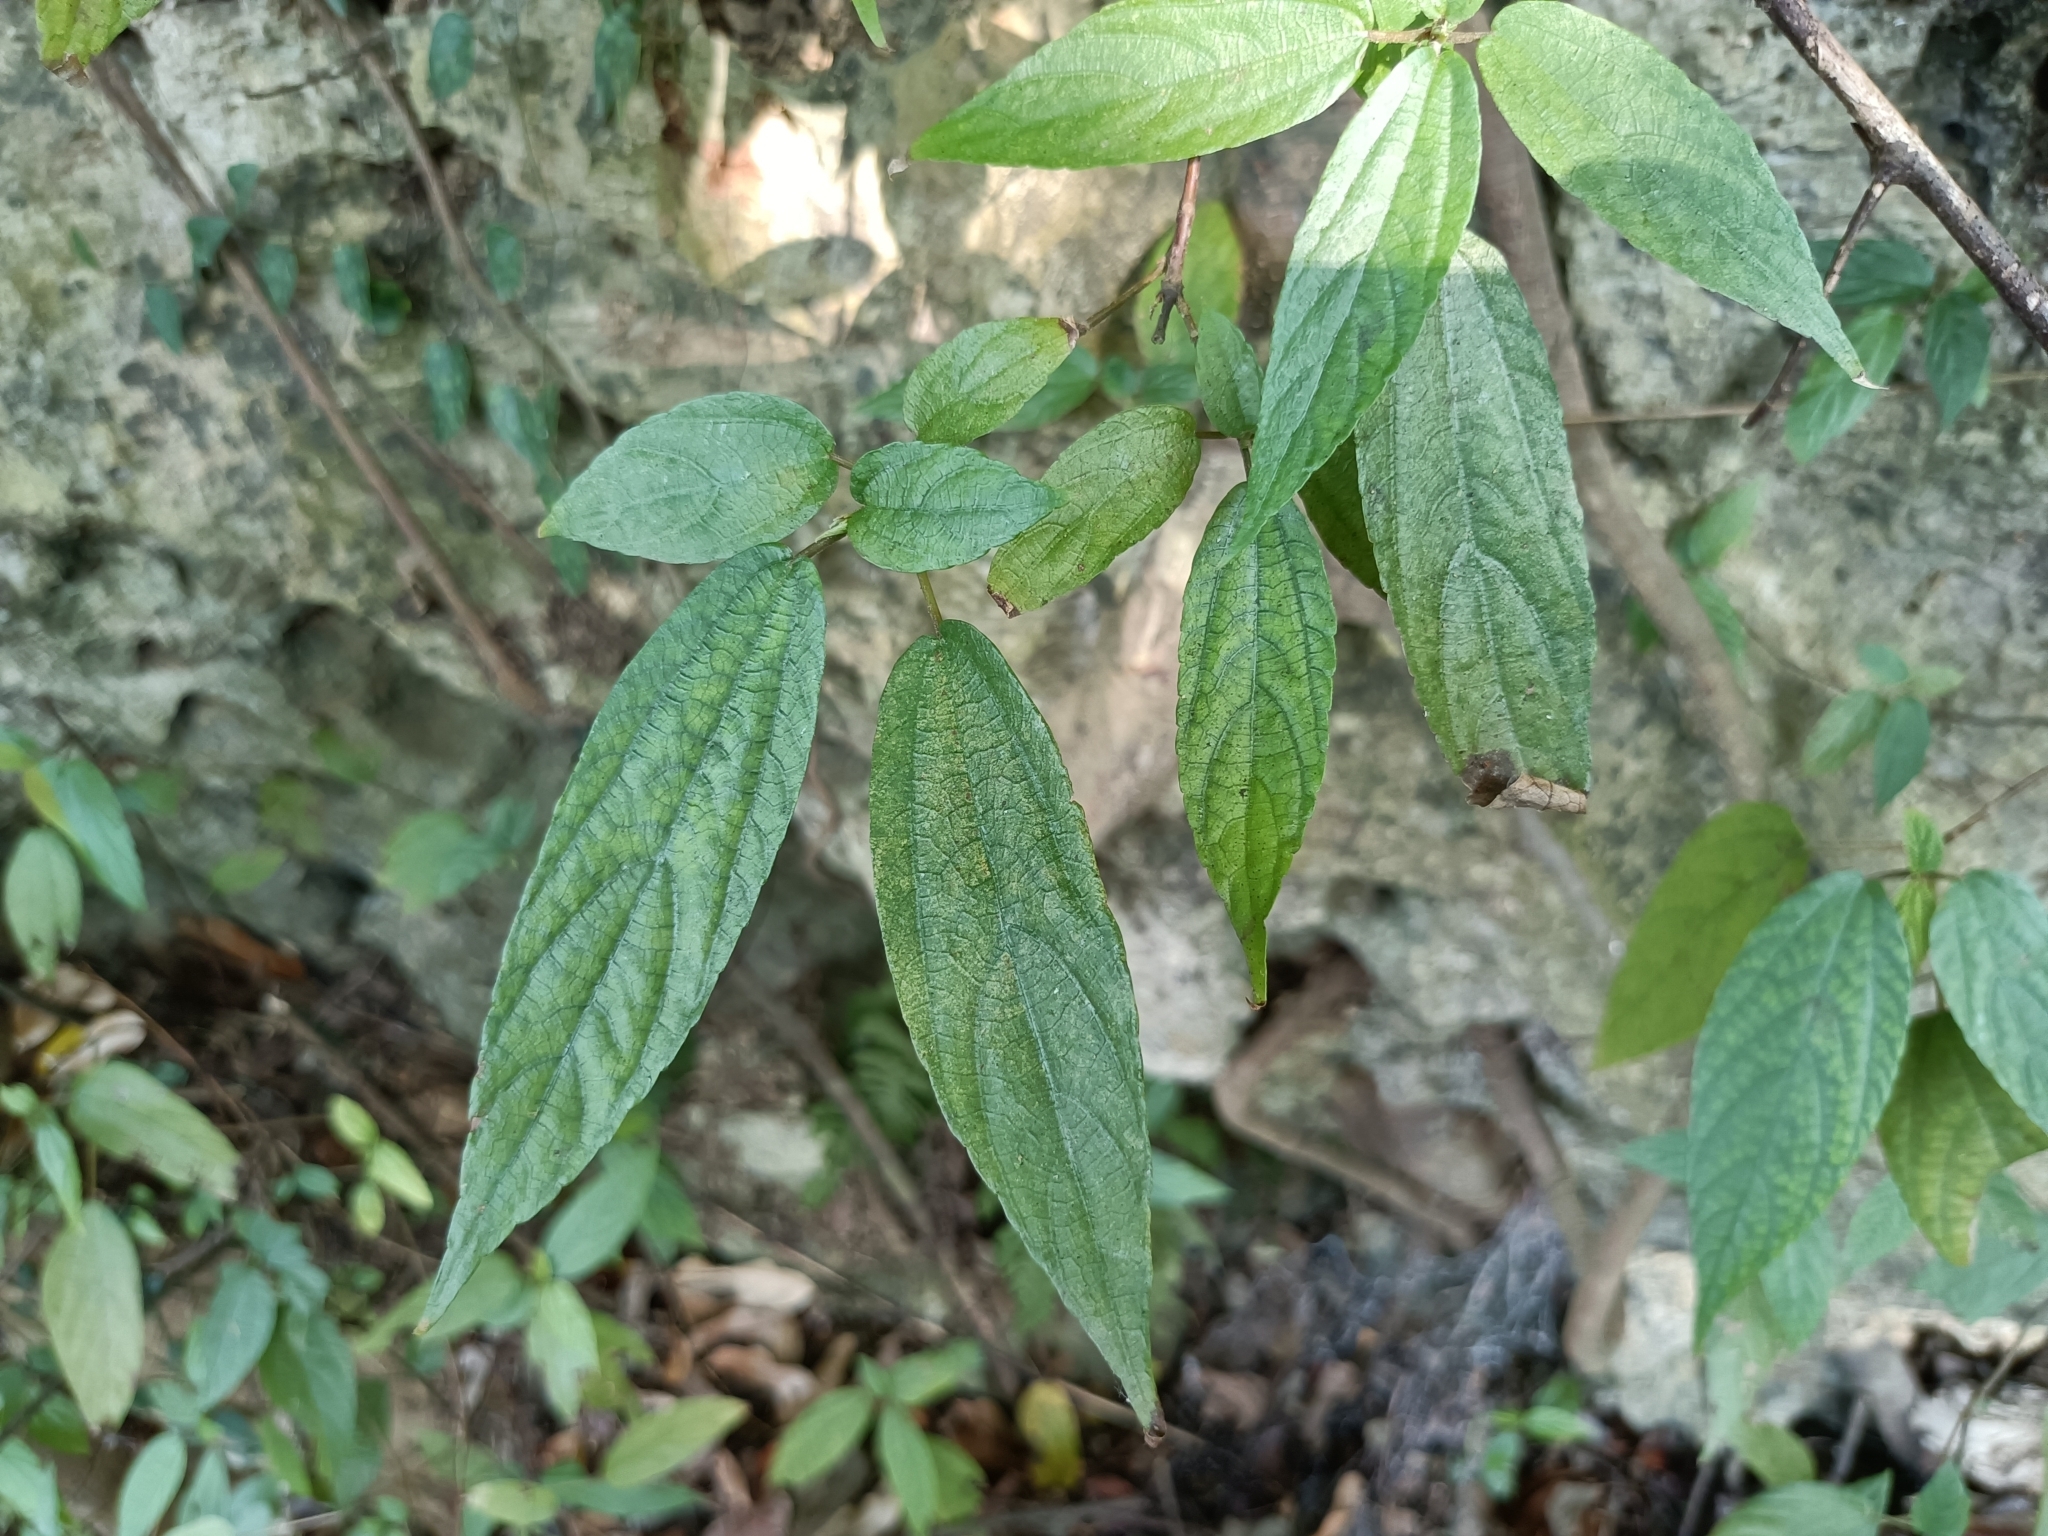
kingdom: Plantae
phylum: Tracheophyta
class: Magnoliopsida
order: Rosales
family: Urticaceae
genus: Boehmeria
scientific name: Boehmeria zollingeriana
